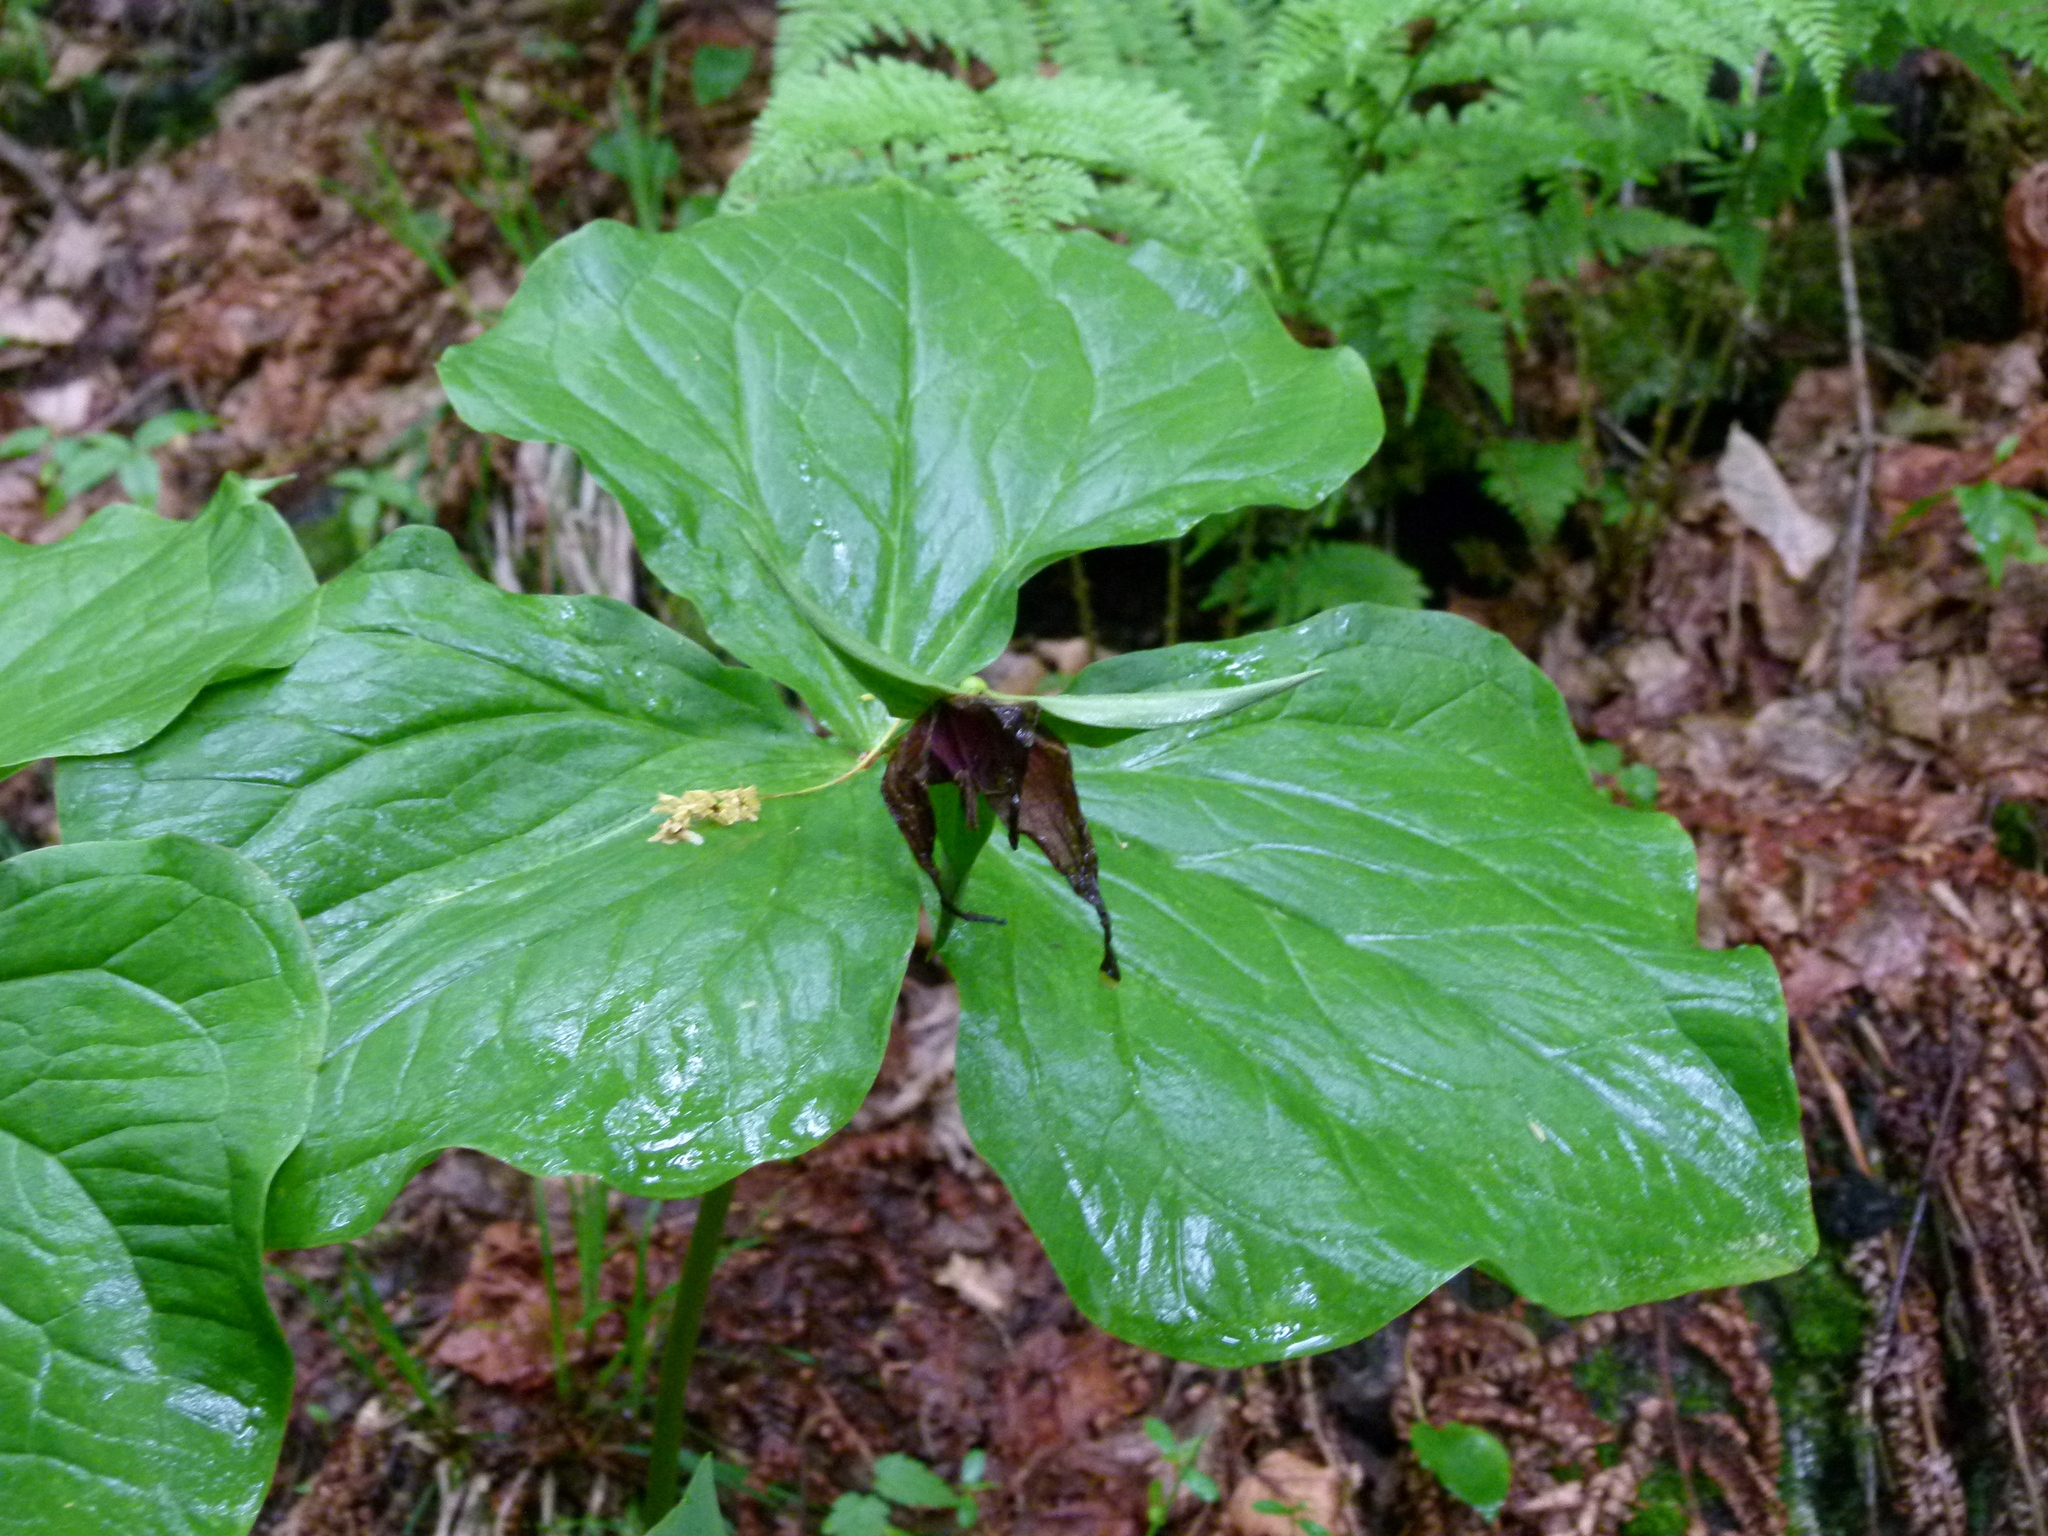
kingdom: Plantae
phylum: Tracheophyta
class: Liliopsida
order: Liliales
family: Melanthiaceae
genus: Trillium
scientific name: Trillium erectum
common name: Purple trillium
